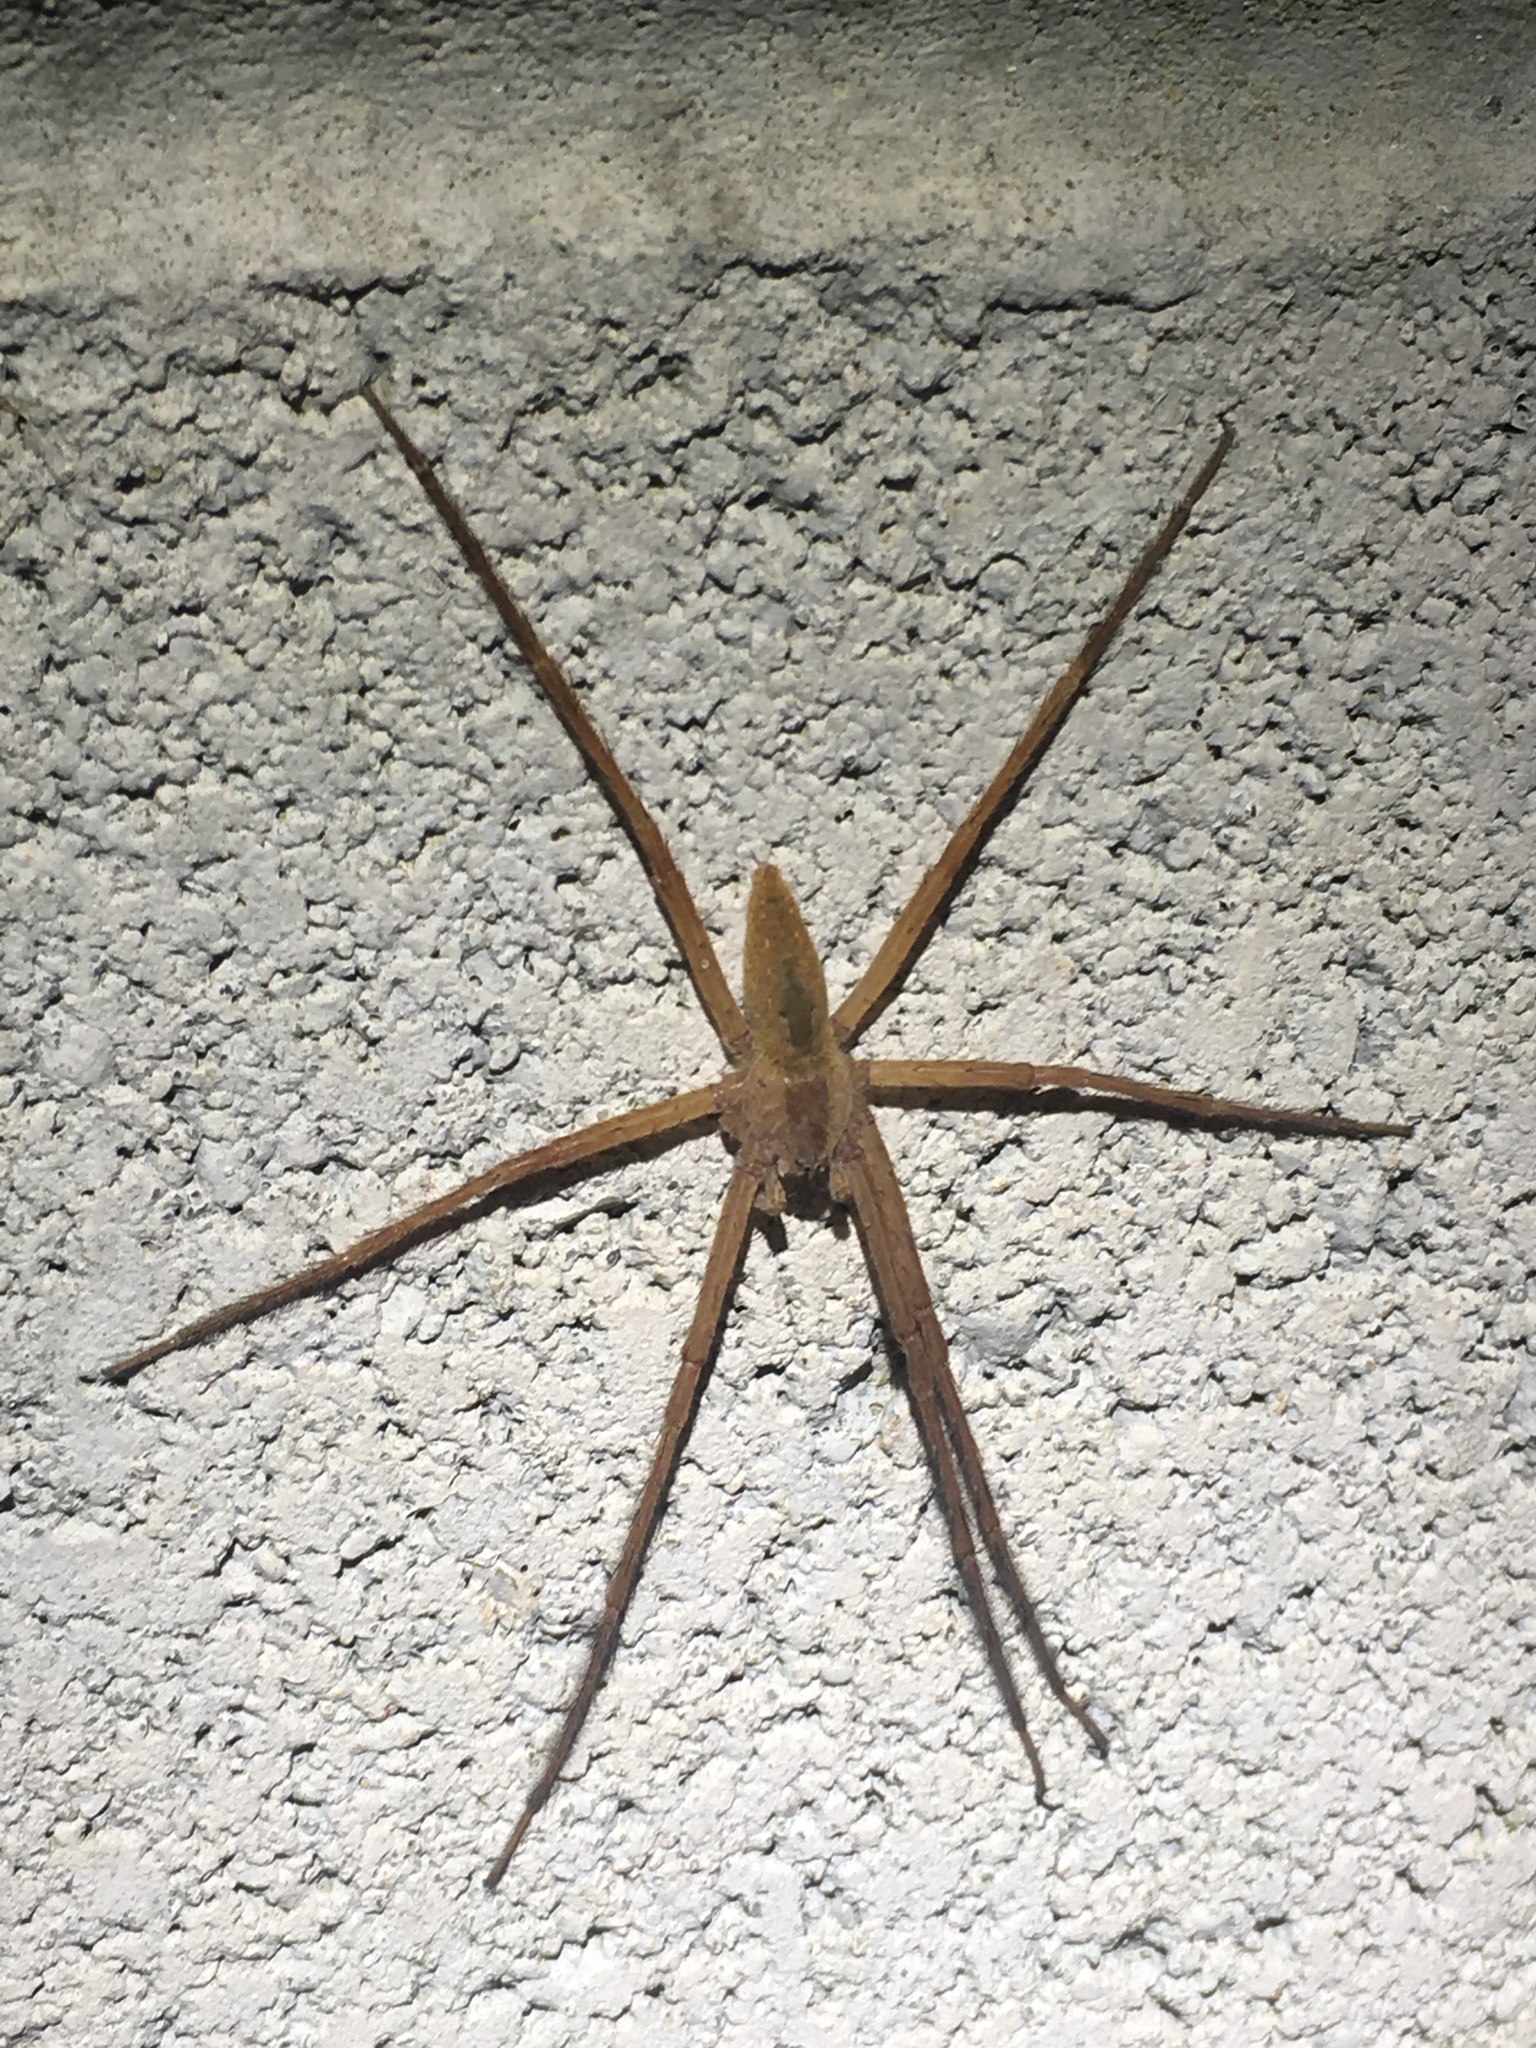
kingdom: Animalia
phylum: Arthropoda
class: Arachnida
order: Araneae
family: Pisauridae
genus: Pisaurina
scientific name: Pisaurina mira
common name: American nursery web spider
